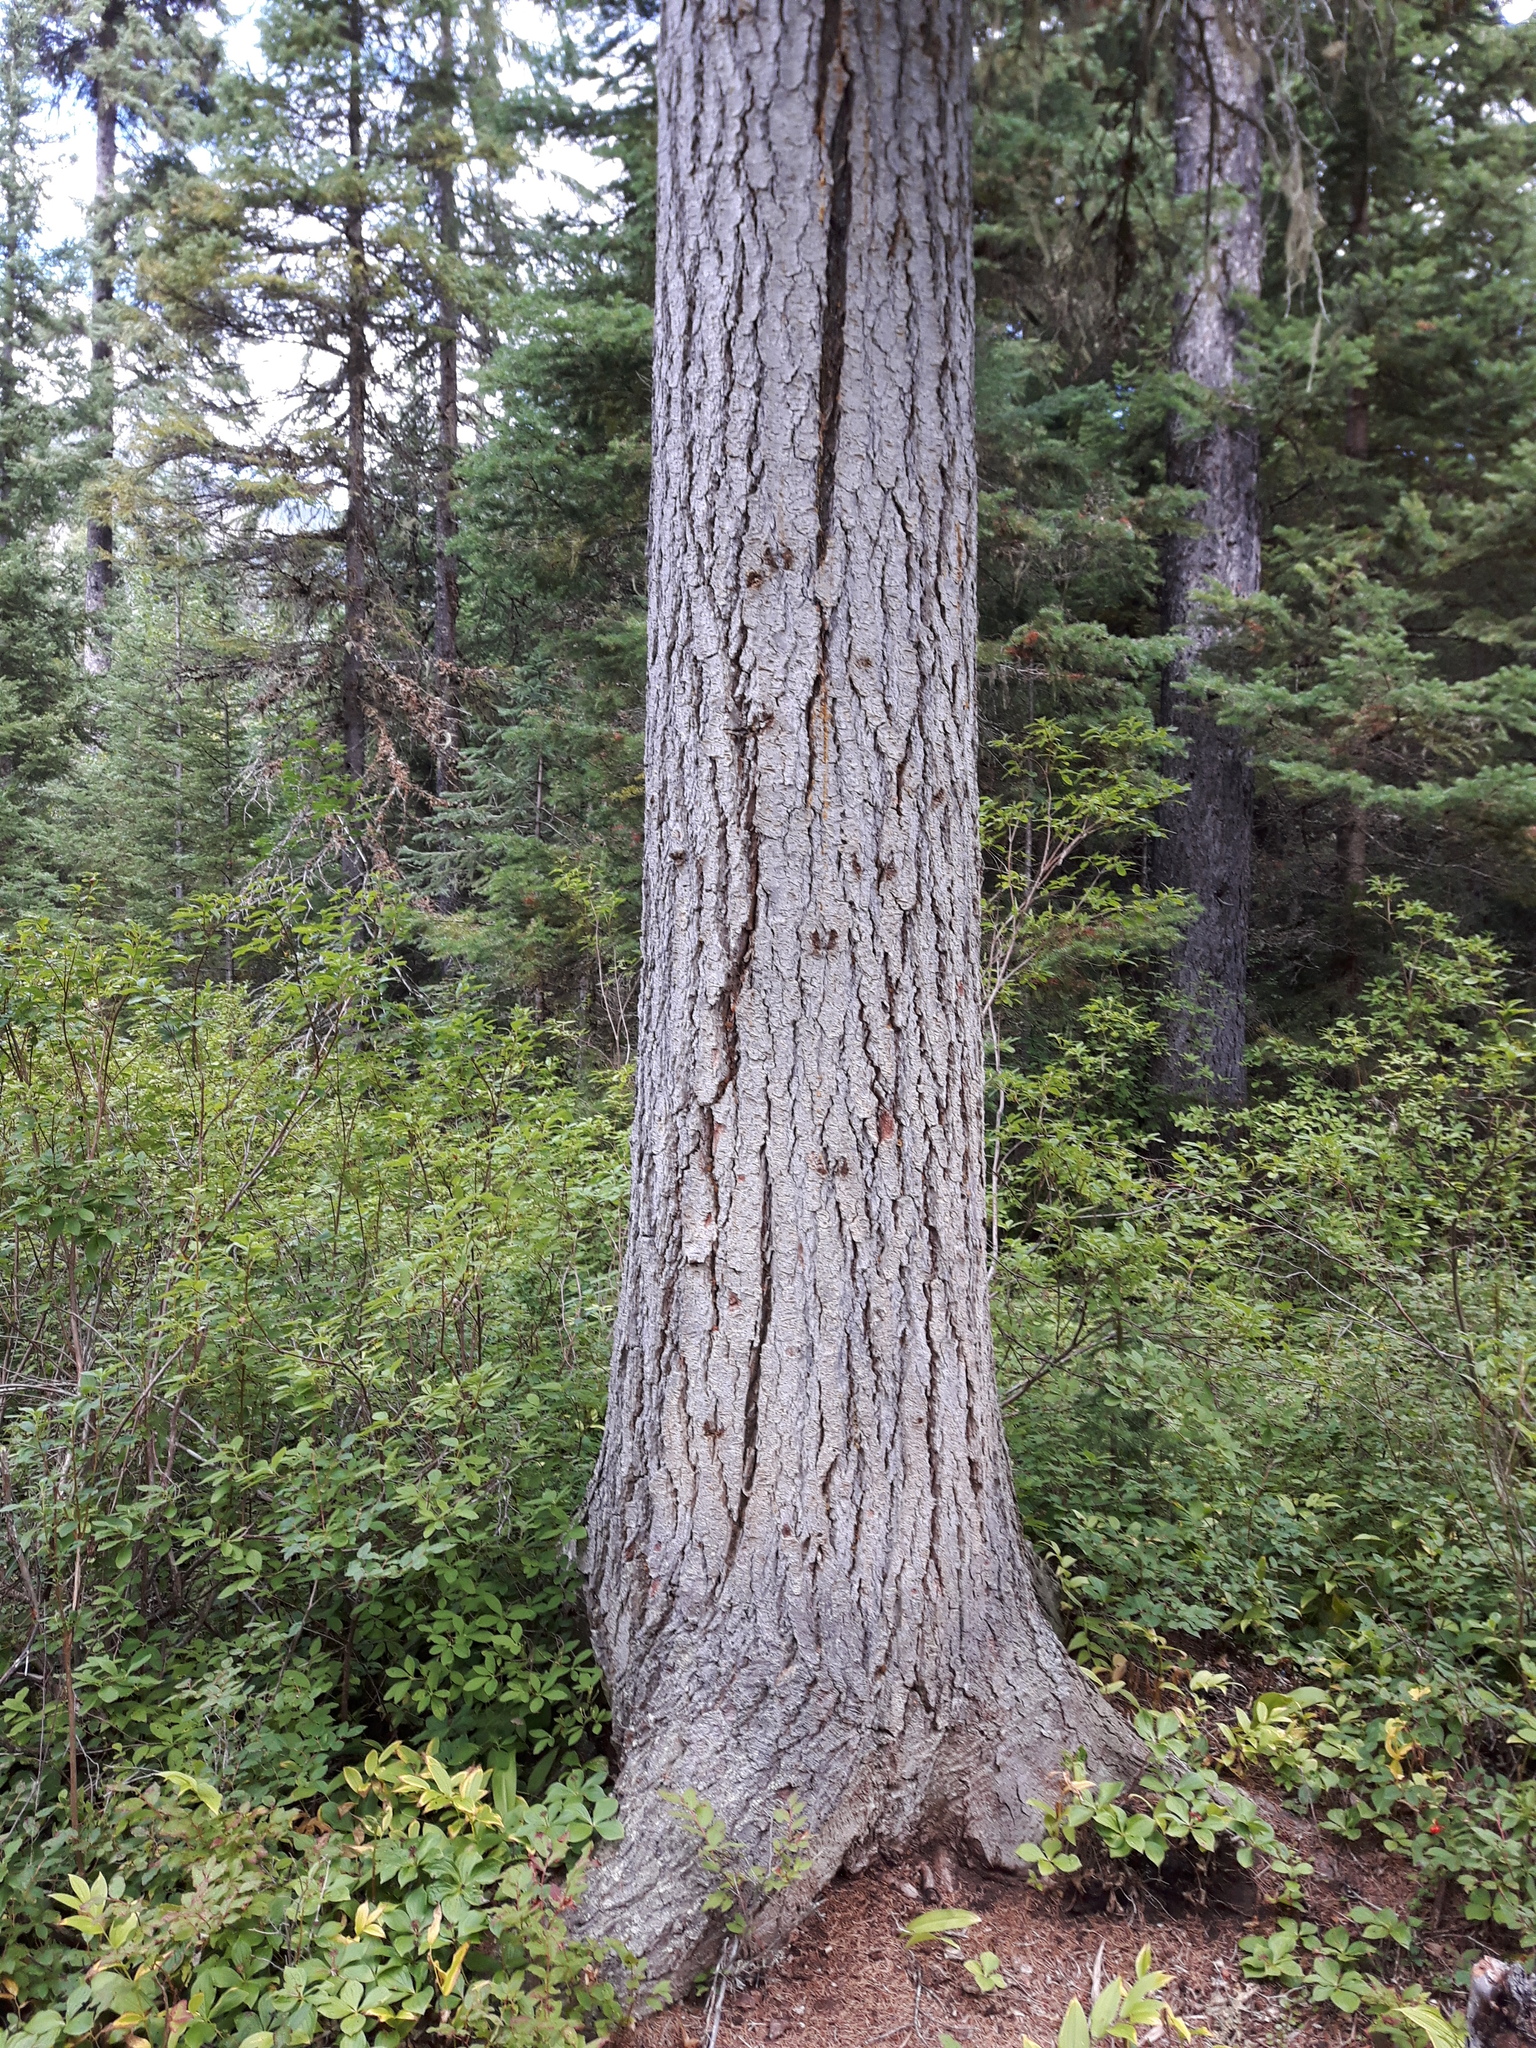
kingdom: Plantae
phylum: Tracheophyta
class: Pinopsida
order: Pinales
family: Pinaceae
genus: Tsuga
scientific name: Tsuga heterophylla
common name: Western hemlock
